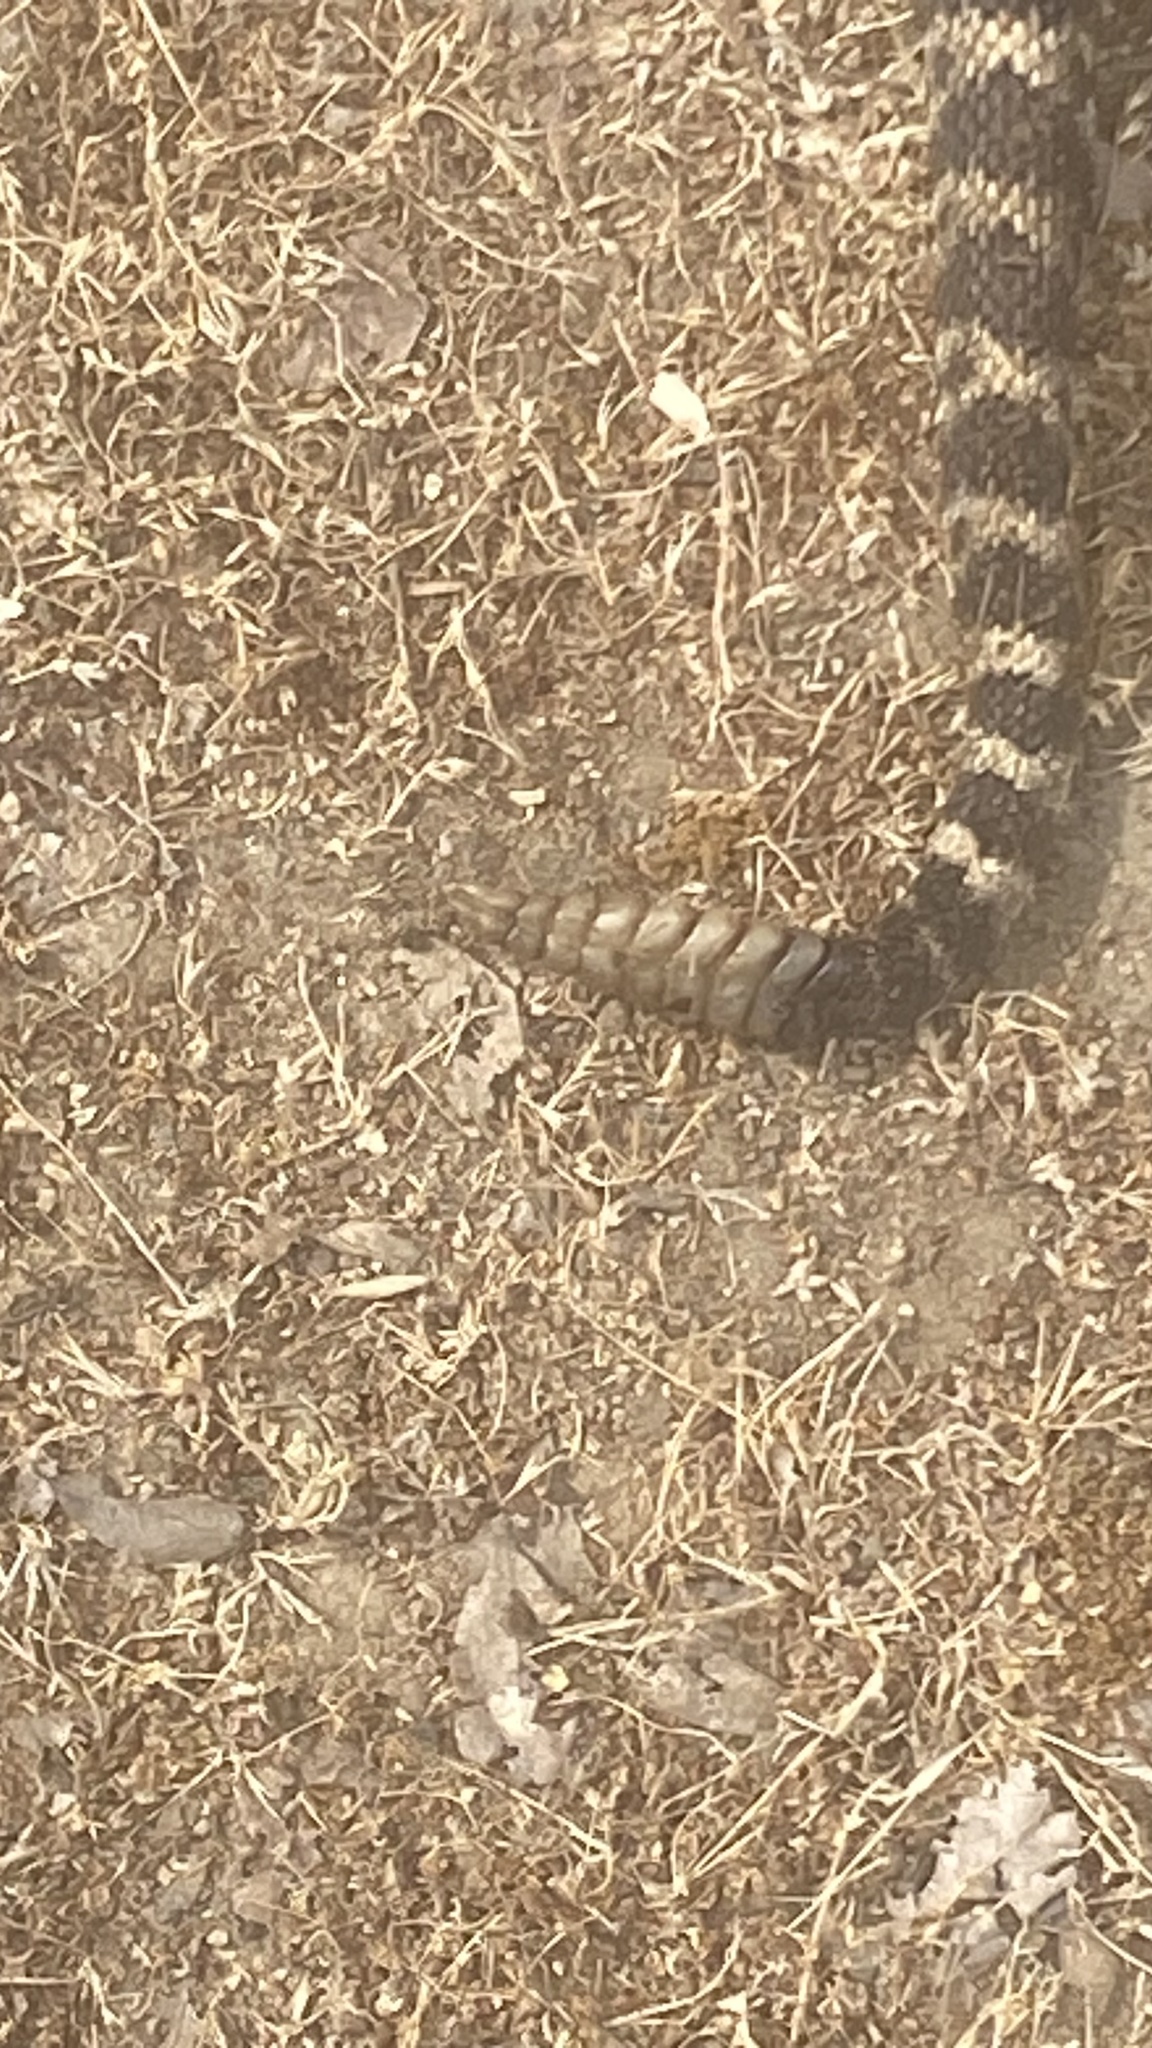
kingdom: Animalia
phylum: Chordata
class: Squamata
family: Viperidae
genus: Crotalus
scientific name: Crotalus oreganus
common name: Abyssus
